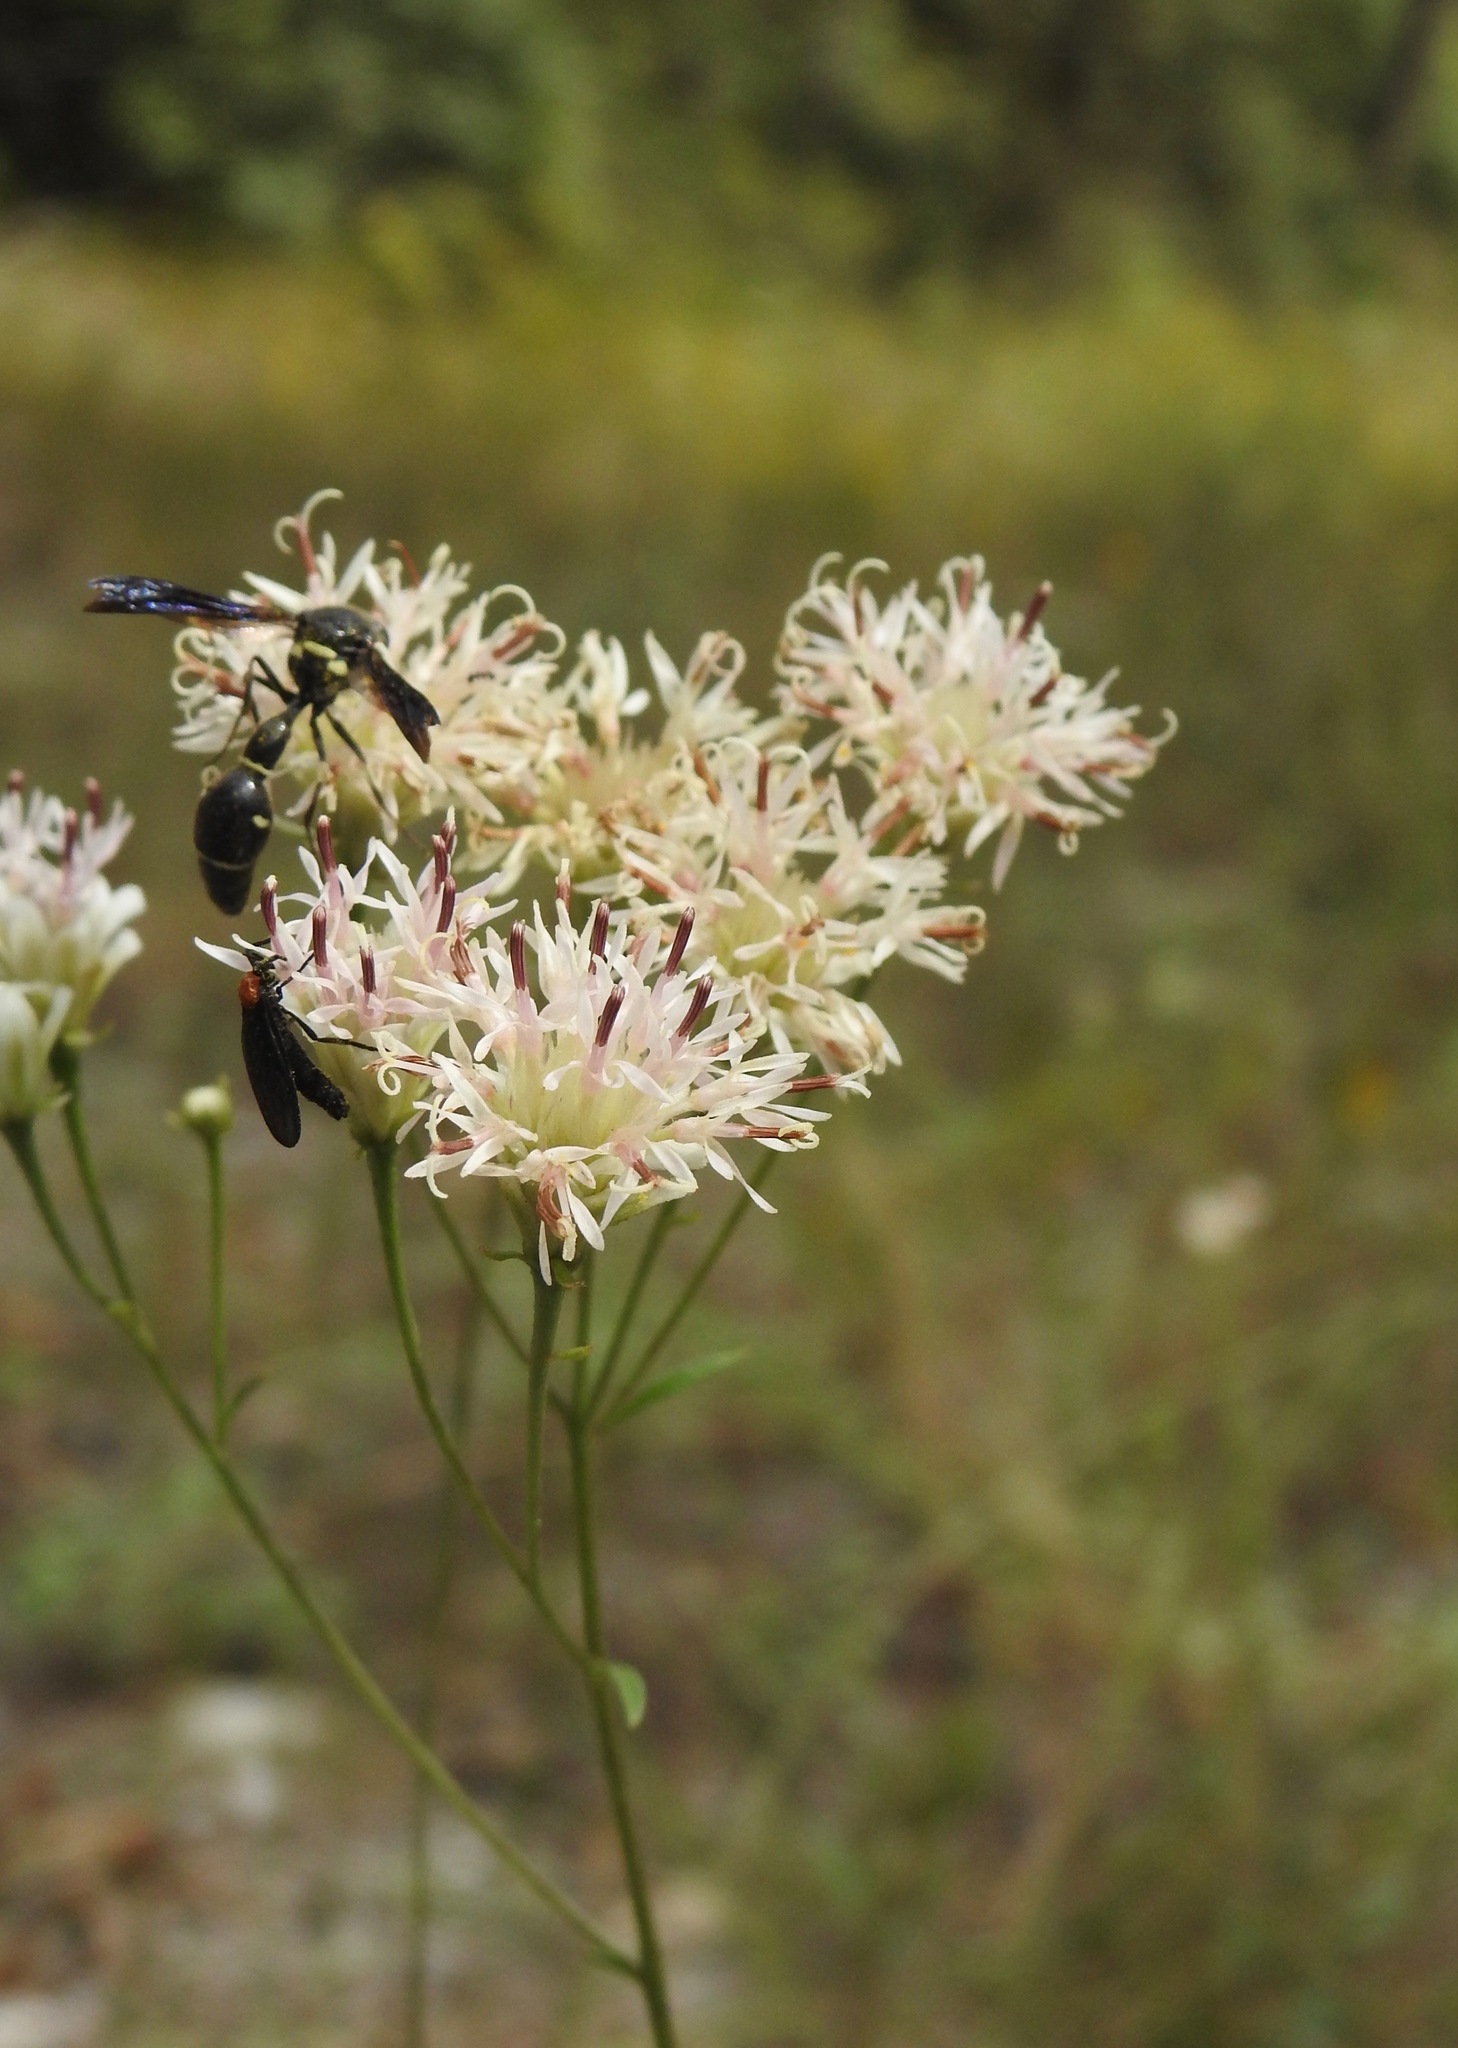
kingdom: Plantae
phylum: Tracheophyta
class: Magnoliopsida
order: Asterales
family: Asteraceae
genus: Palafoxia
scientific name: Palafoxia integrifolia
